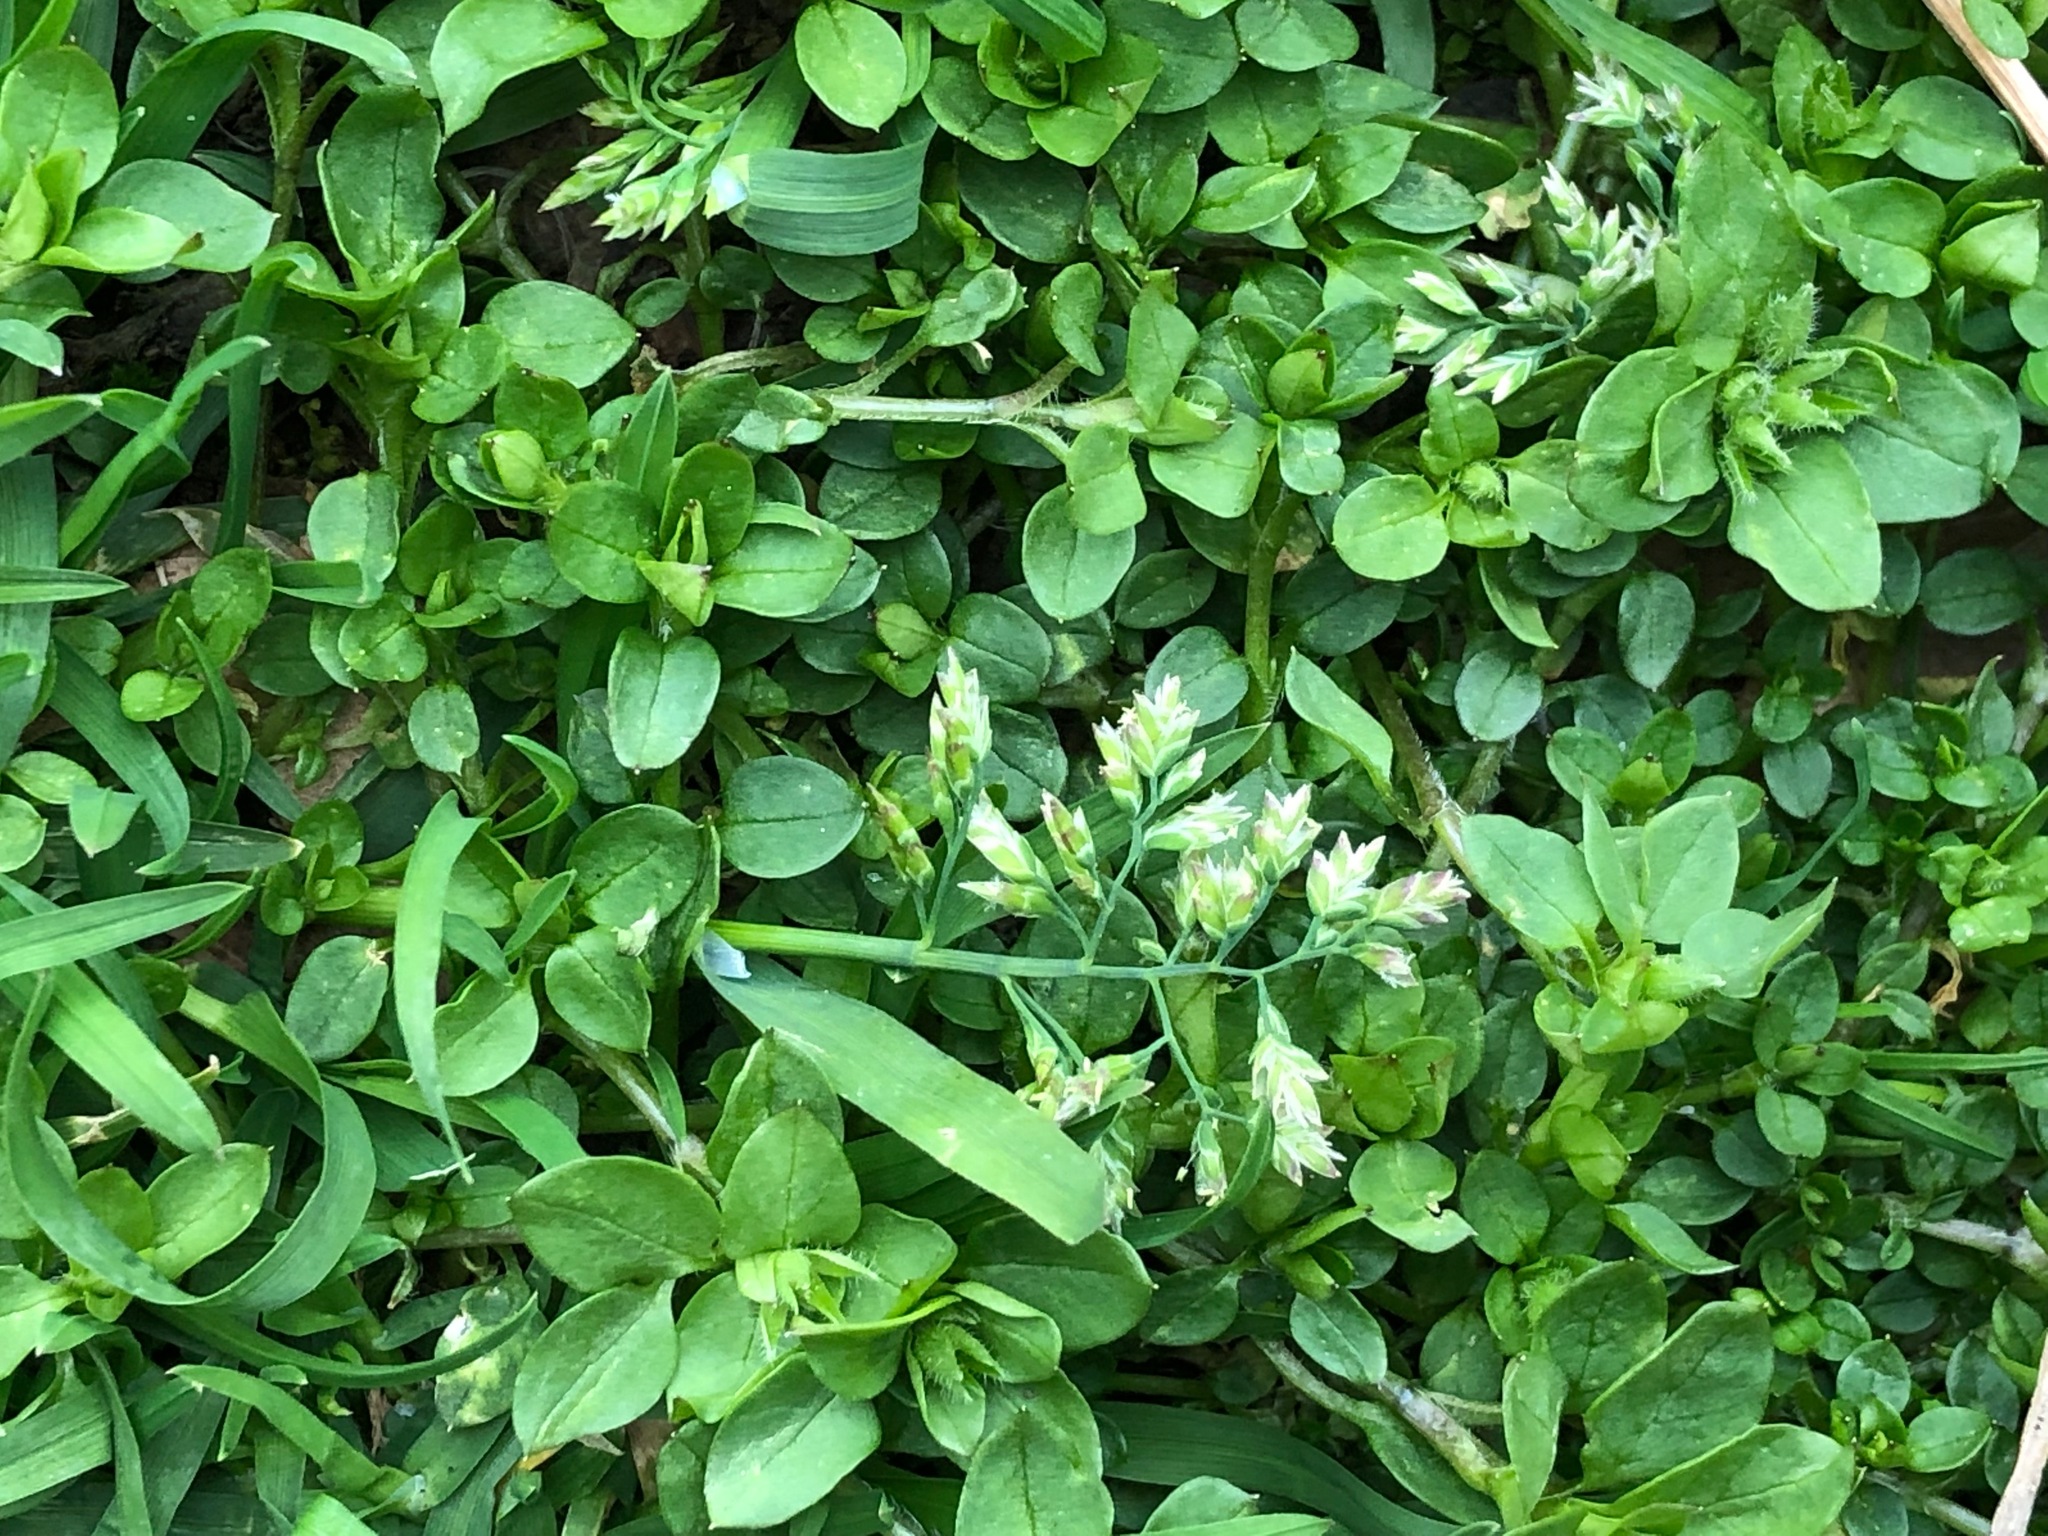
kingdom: Plantae
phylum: Tracheophyta
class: Liliopsida
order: Poales
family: Poaceae
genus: Poa
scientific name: Poa annua
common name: Annual bluegrass
